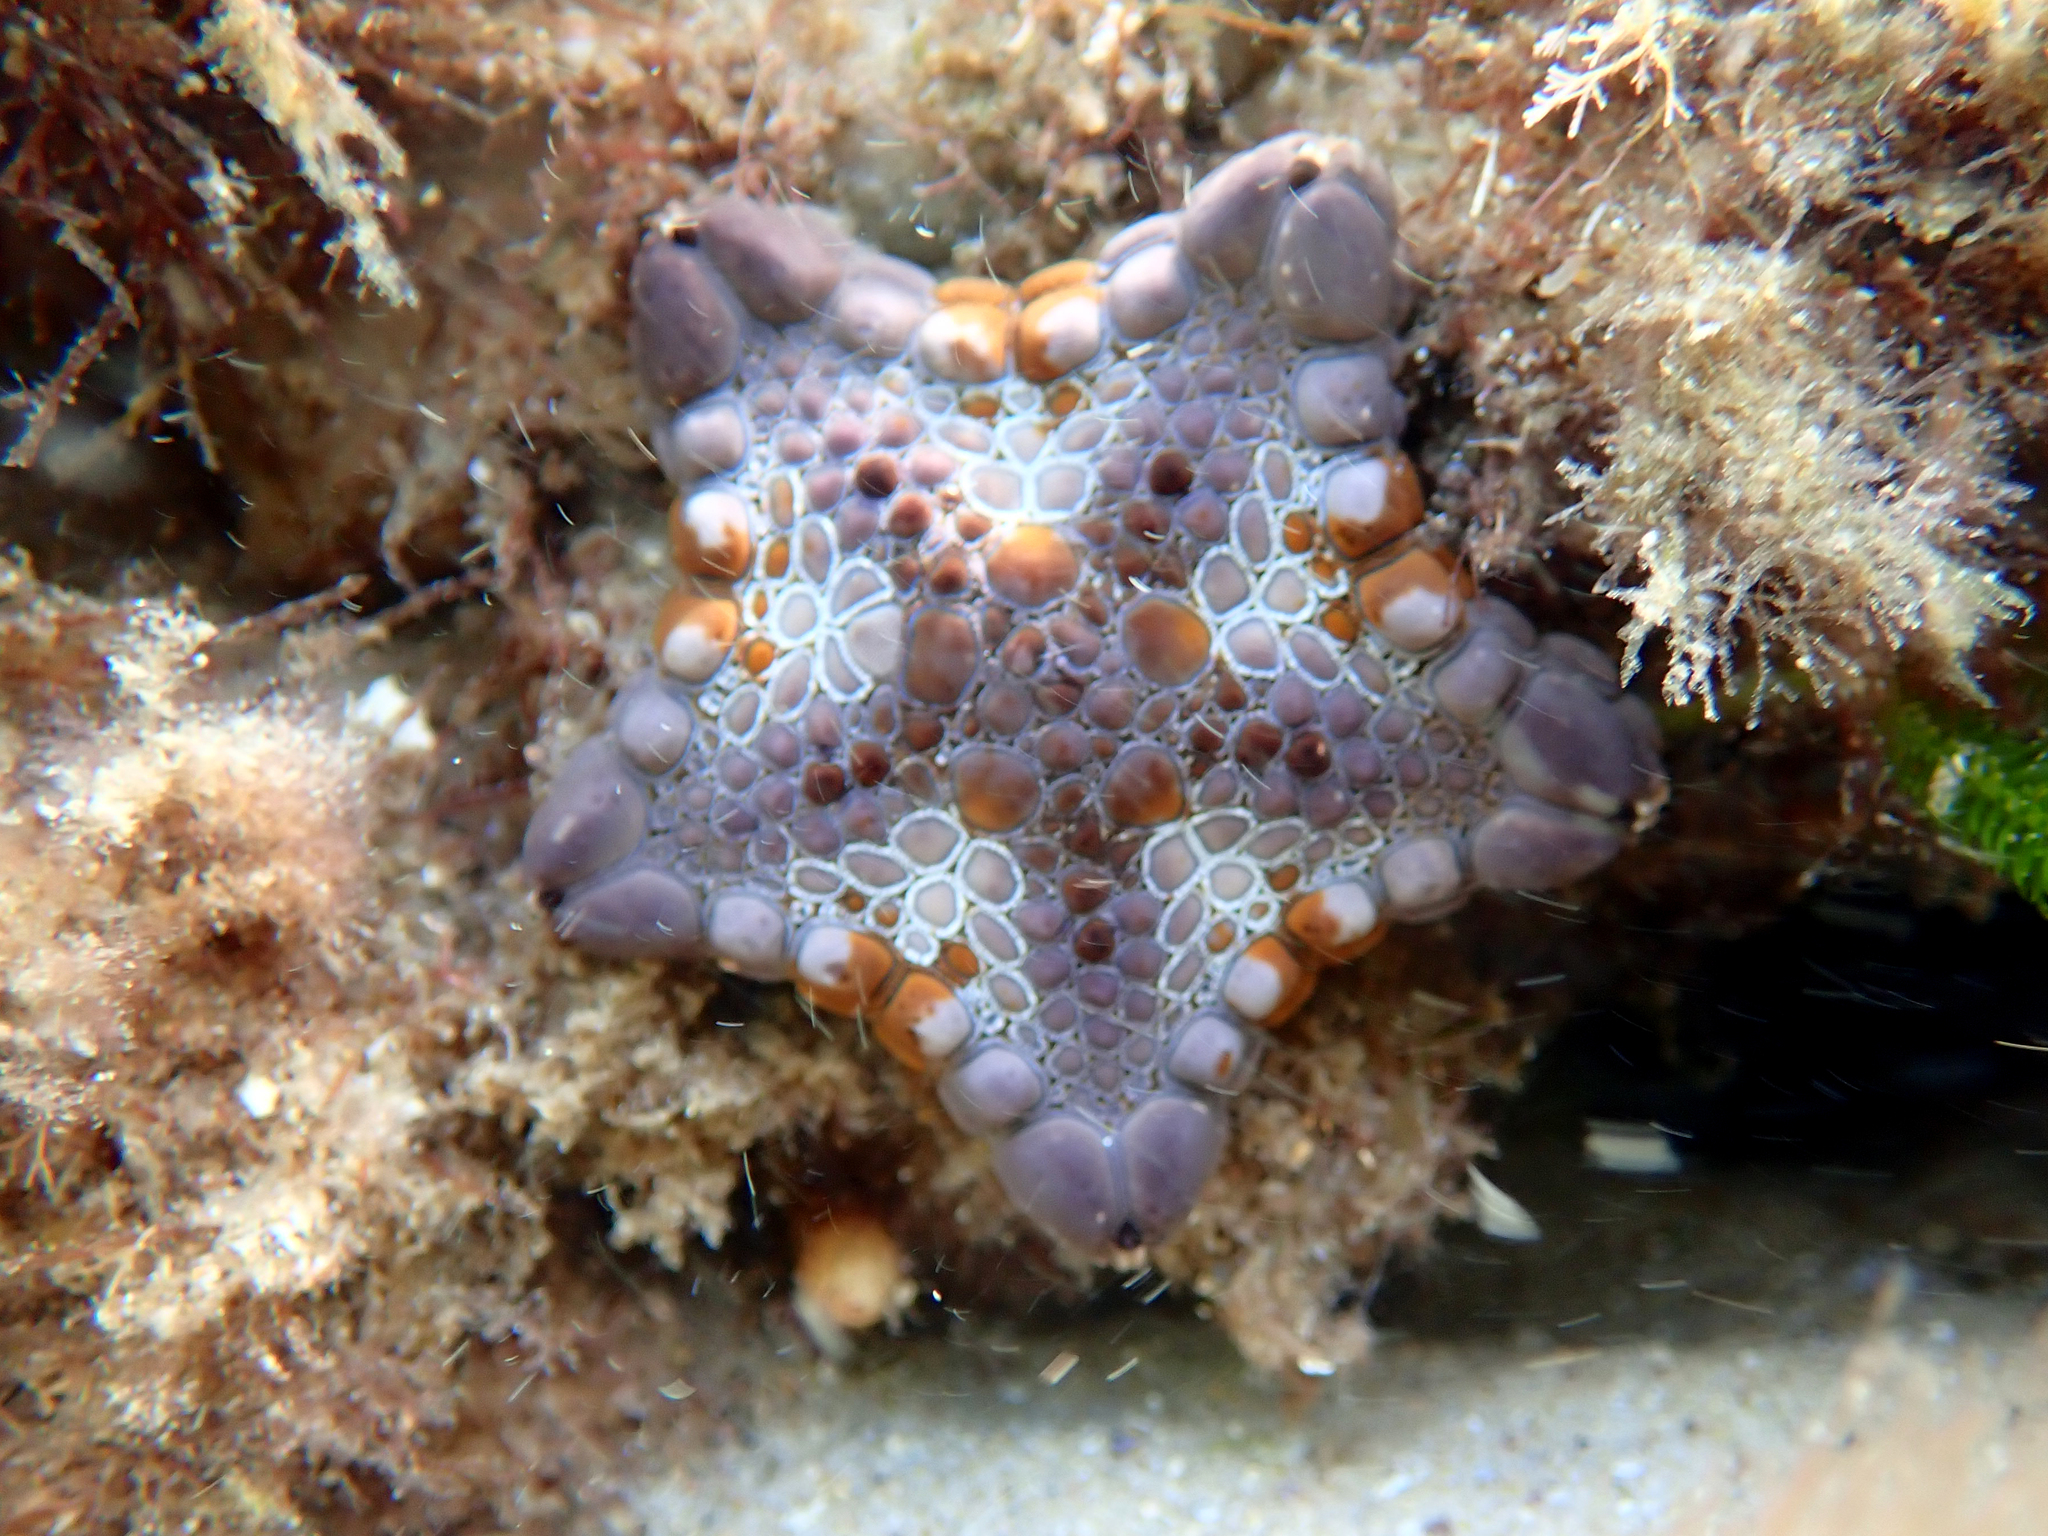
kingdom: Animalia
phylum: Echinodermata
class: Asteroidea
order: Valvatida
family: Goniasteridae
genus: Tosia
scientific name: Tosia australis
